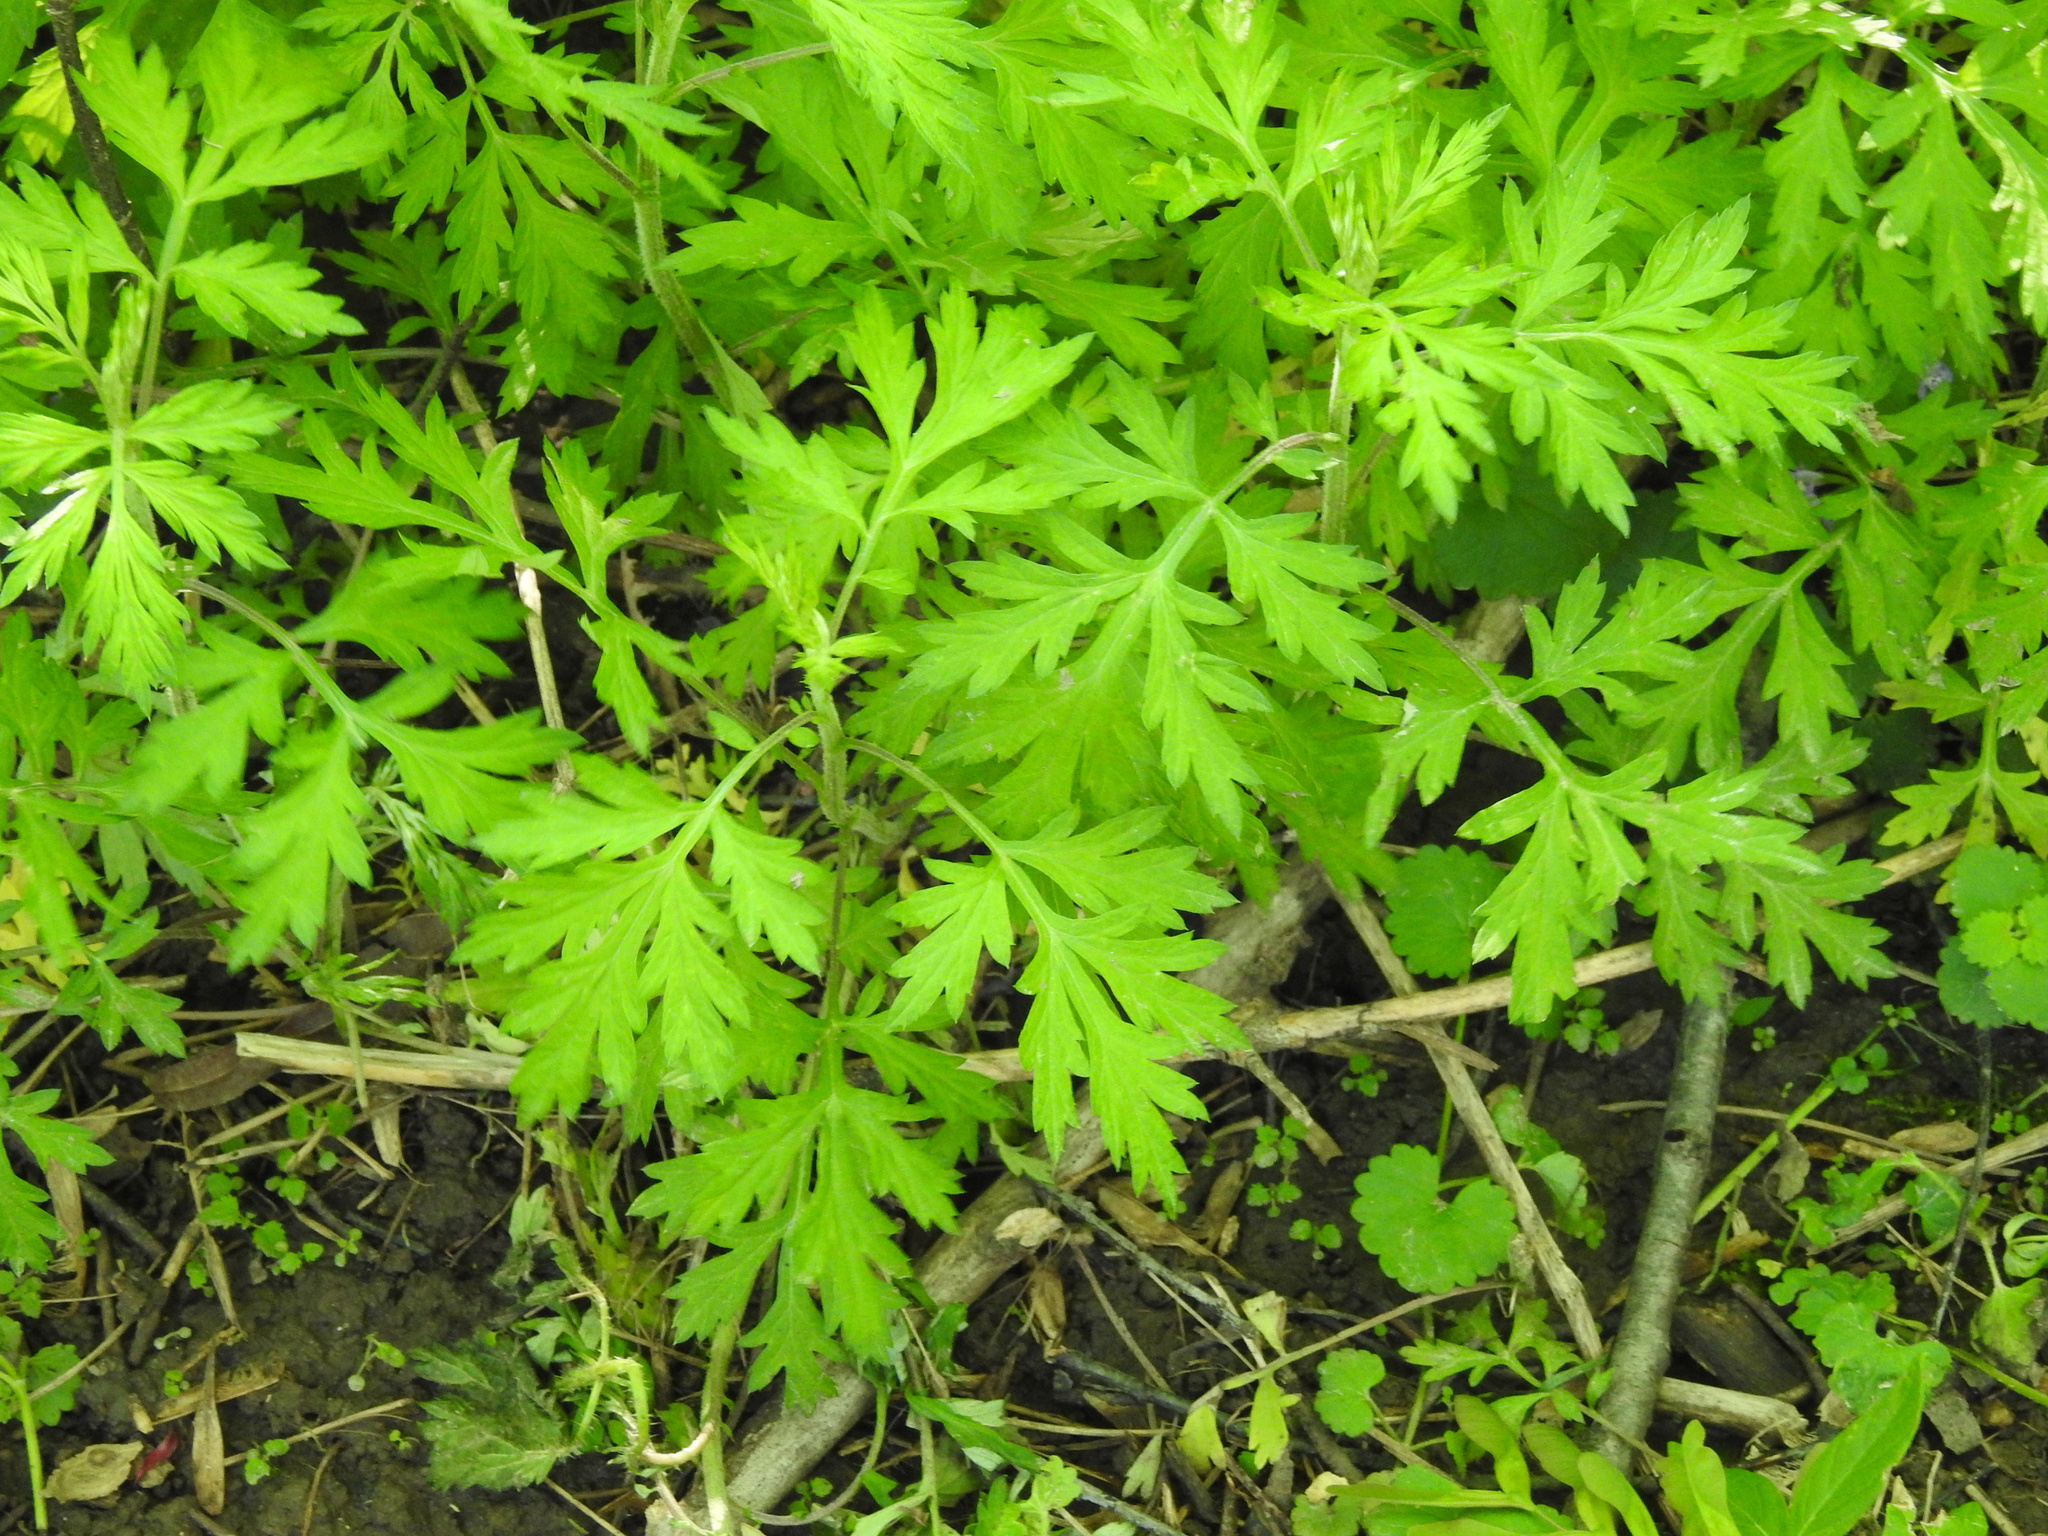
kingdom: Plantae
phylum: Tracheophyta
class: Magnoliopsida
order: Asterales
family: Asteraceae
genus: Artemisia
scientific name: Artemisia vulgaris
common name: Mugwort
